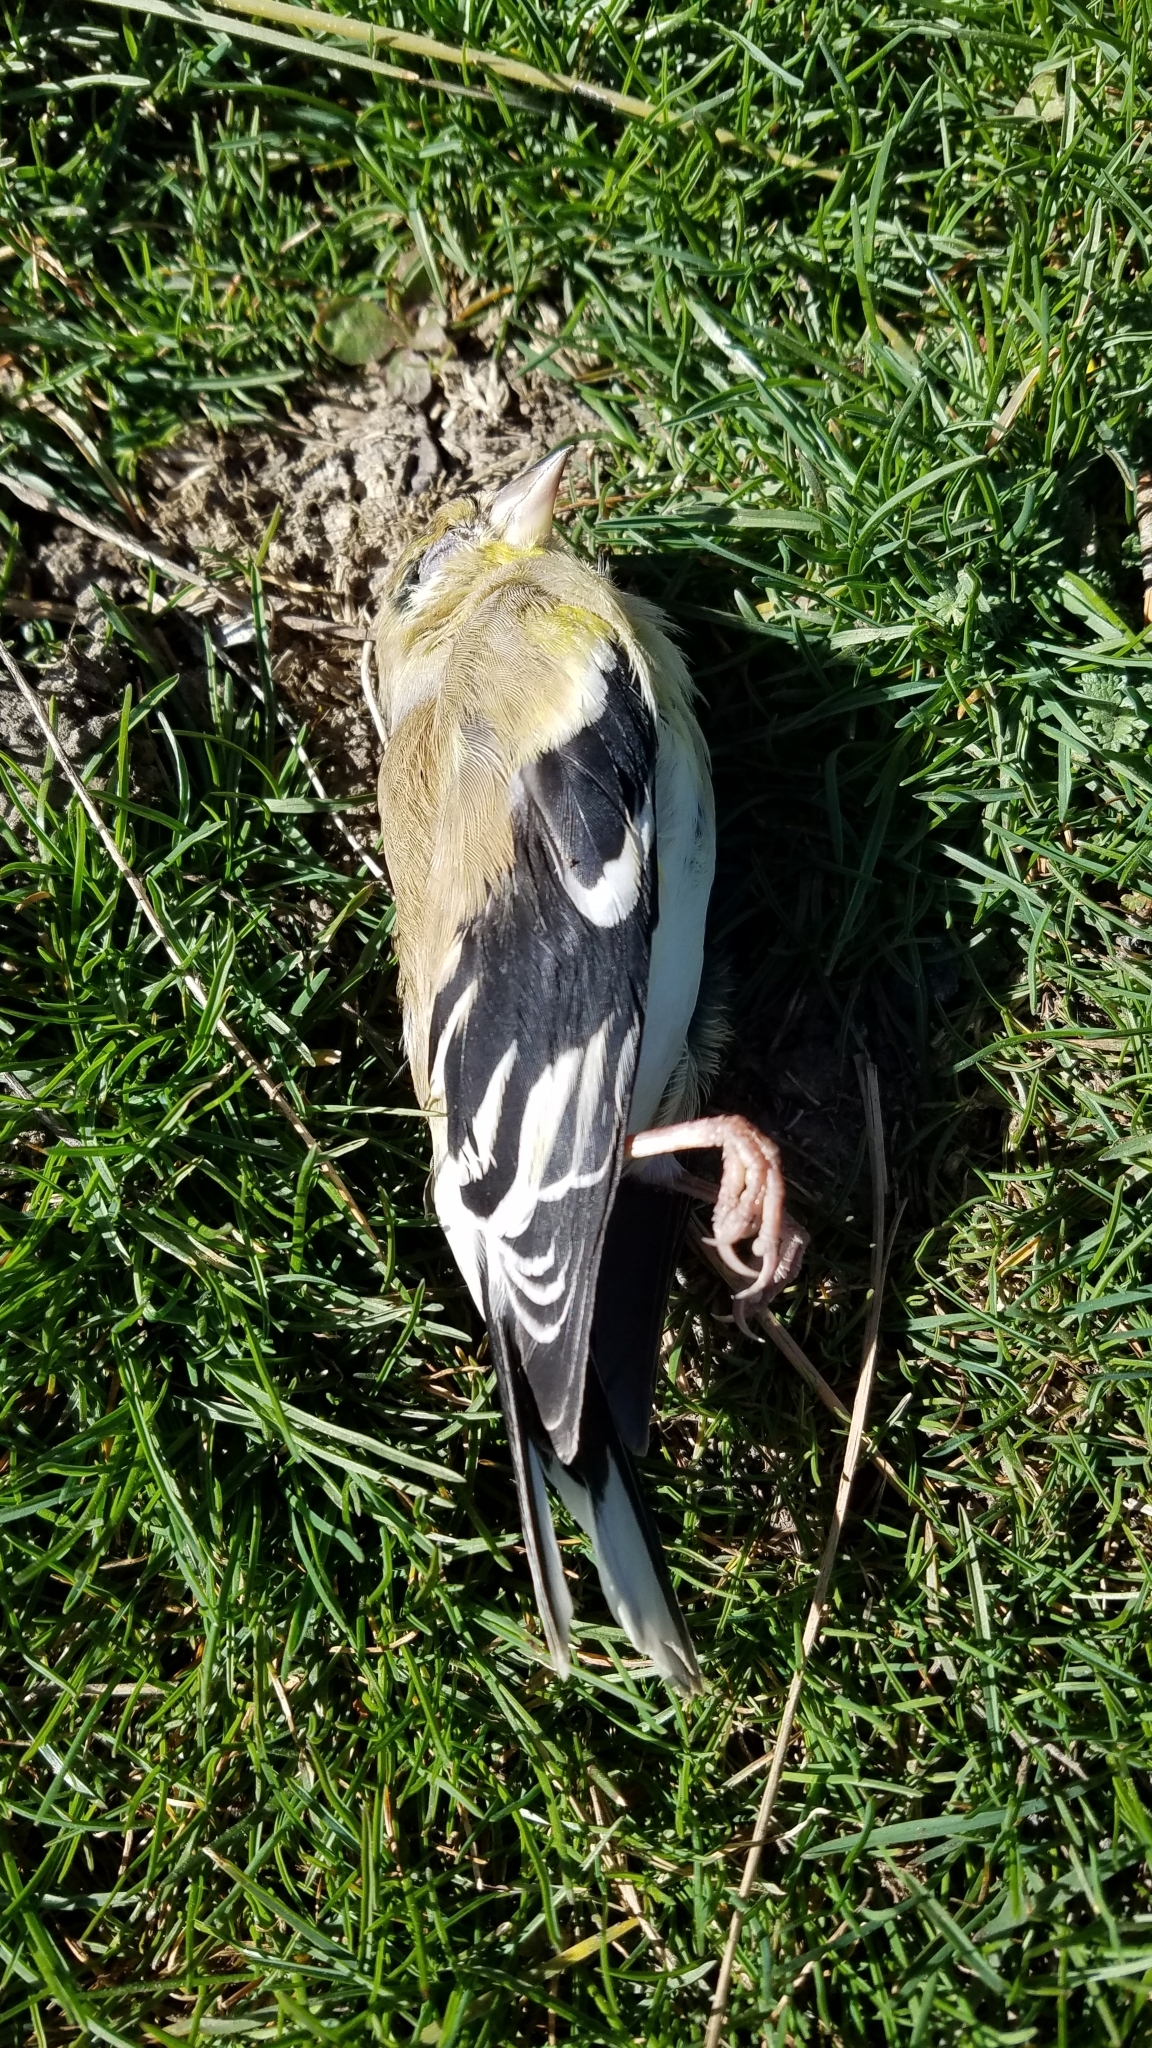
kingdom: Animalia
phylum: Chordata
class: Aves
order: Passeriformes
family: Fringillidae
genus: Spinus
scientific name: Spinus tristis
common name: American goldfinch
